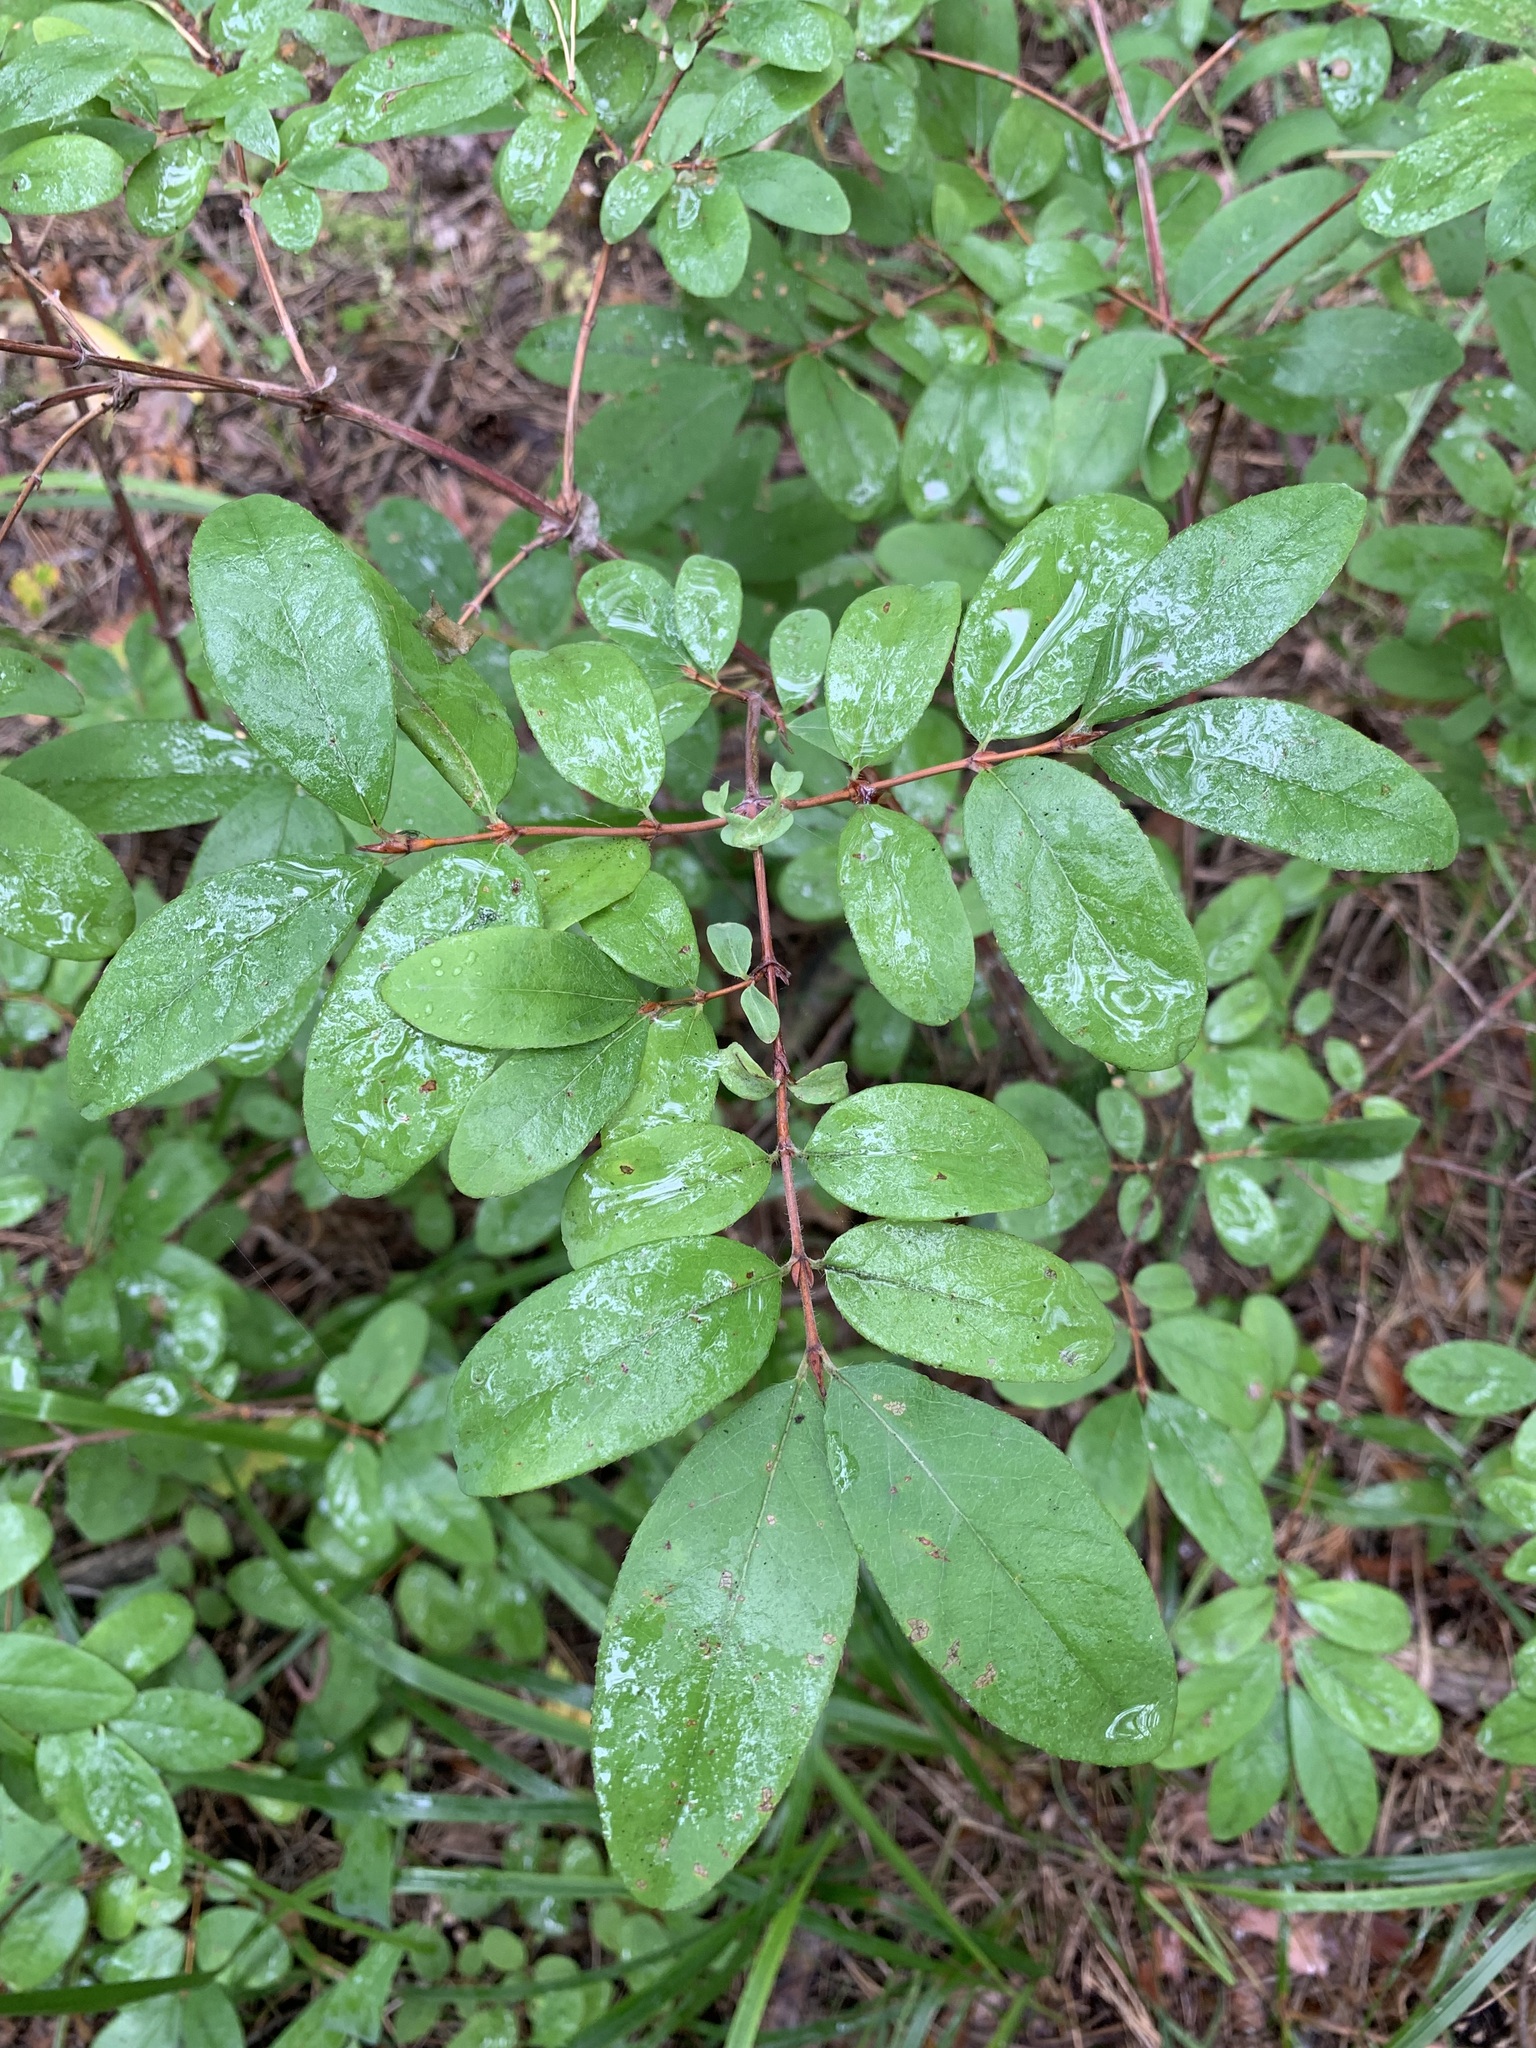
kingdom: Plantae
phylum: Tracheophyta
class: Magnoliopsida
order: Dipsacales
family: Caprifoliaceae
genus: Lonicera
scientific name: Lonicera caerulea
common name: Blue honeysuckle
